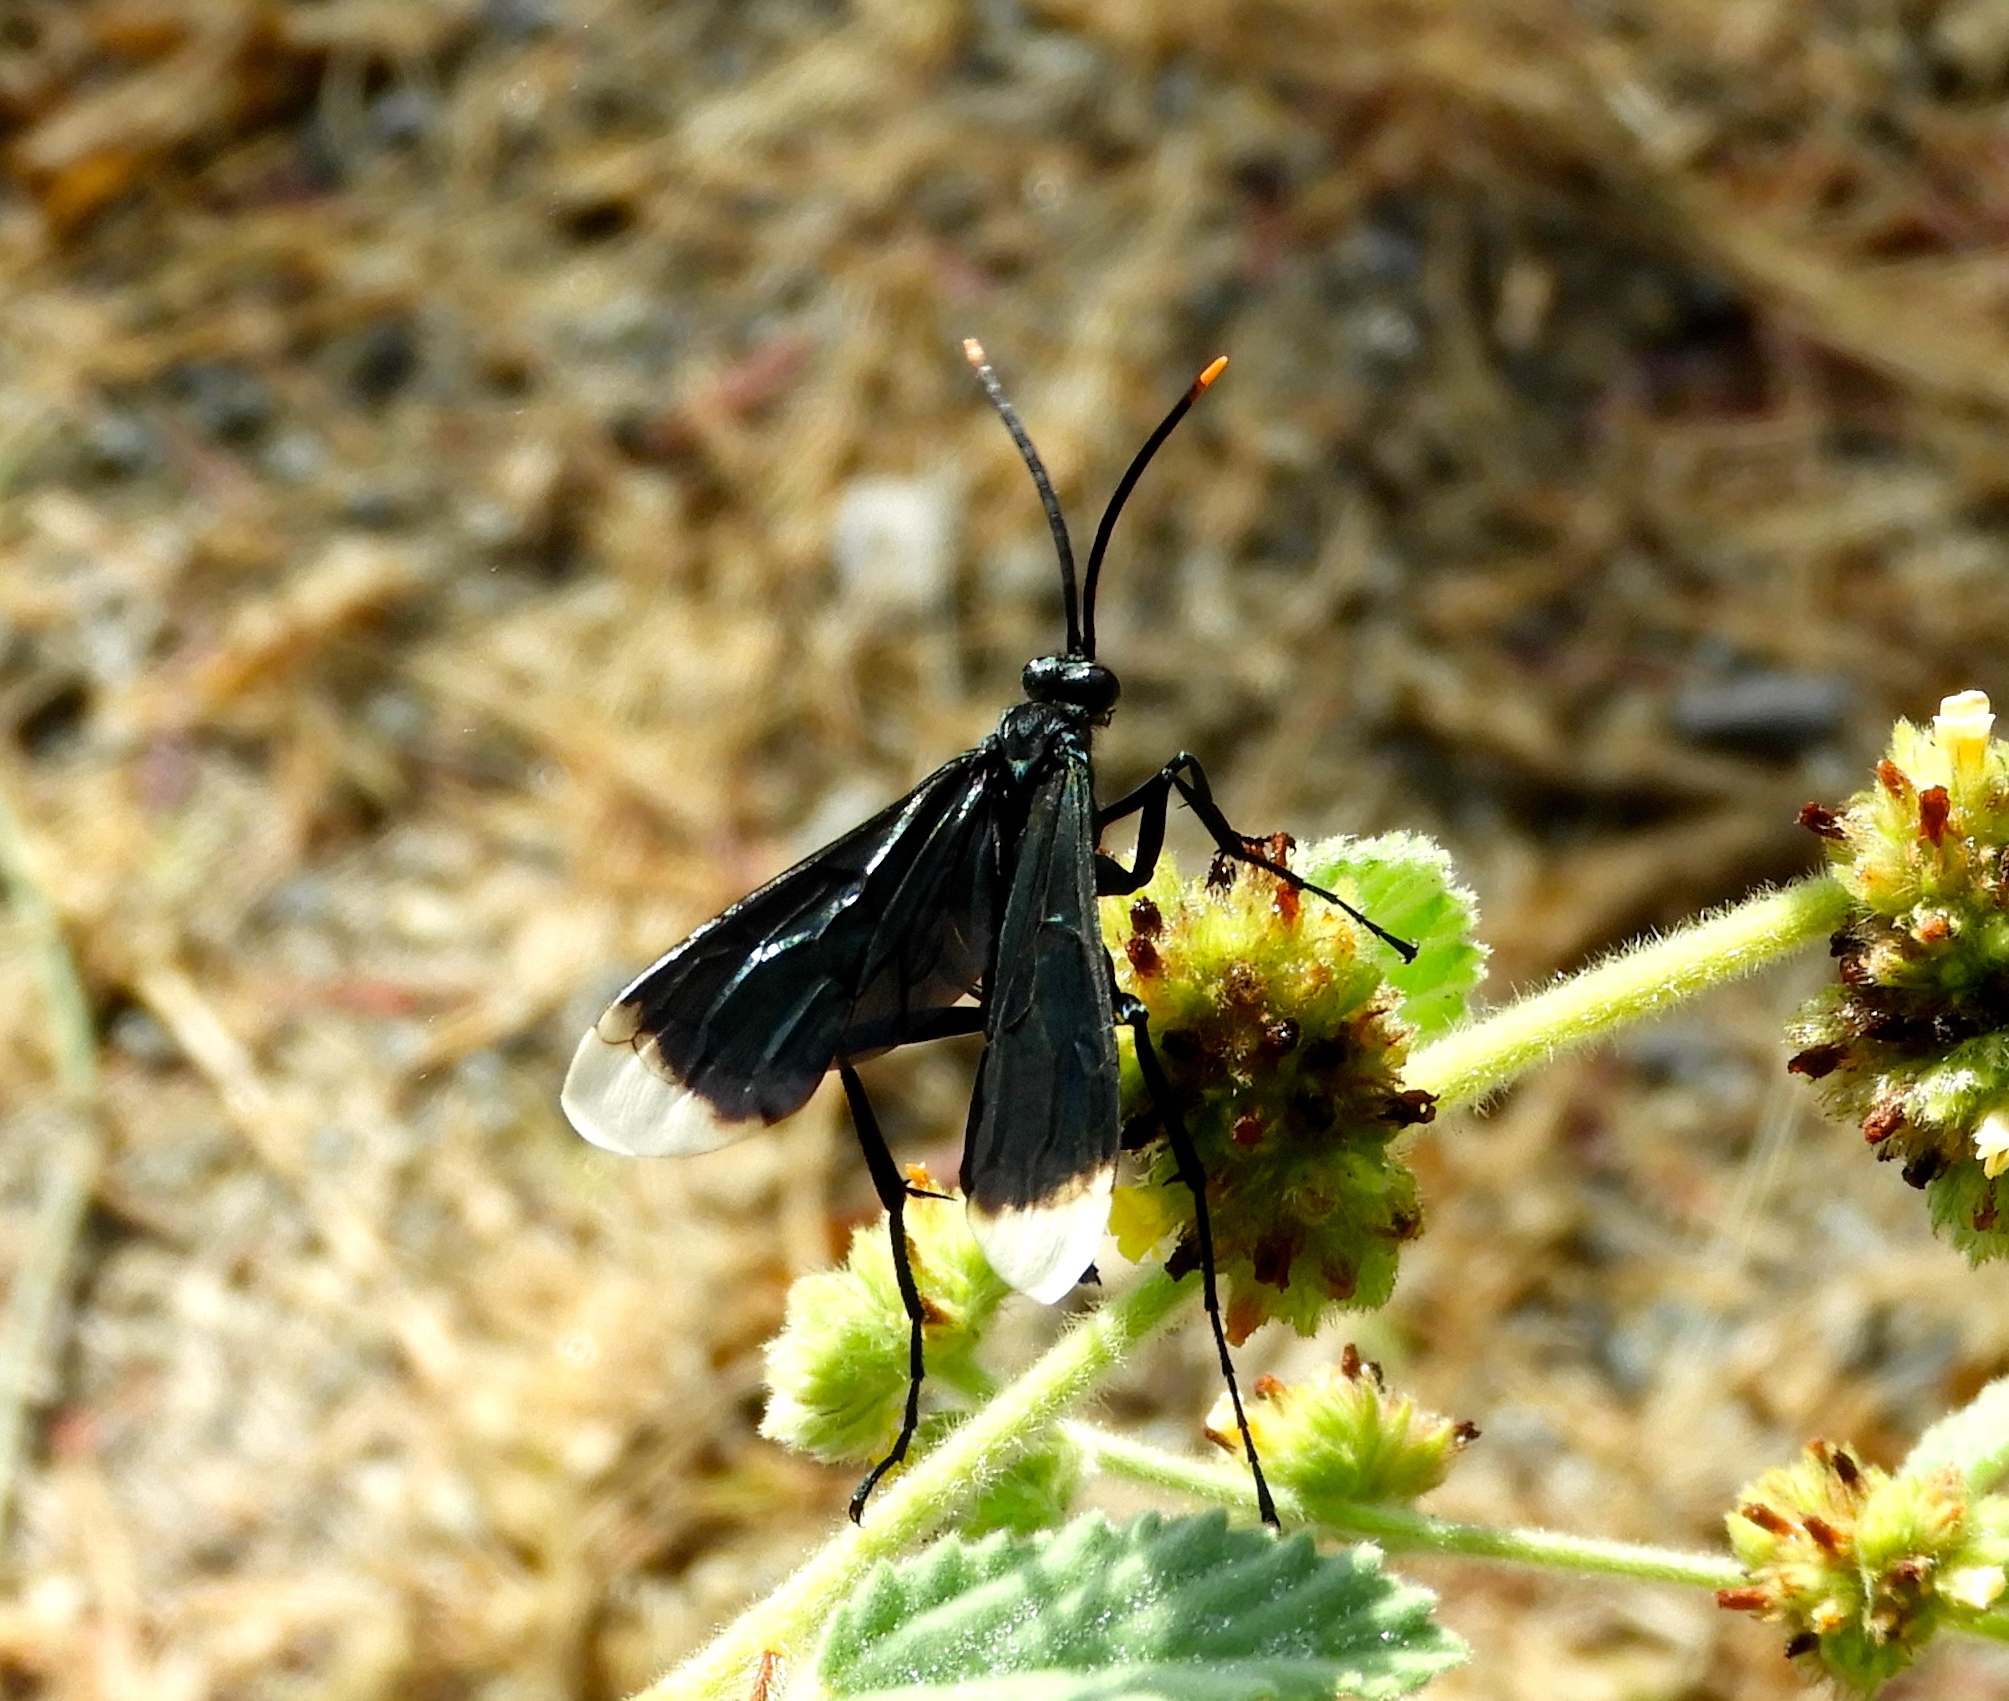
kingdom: Animalia
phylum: Arthropoda
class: Insecta
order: Hymenoptera
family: Pompilidae
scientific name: Pompilidae
